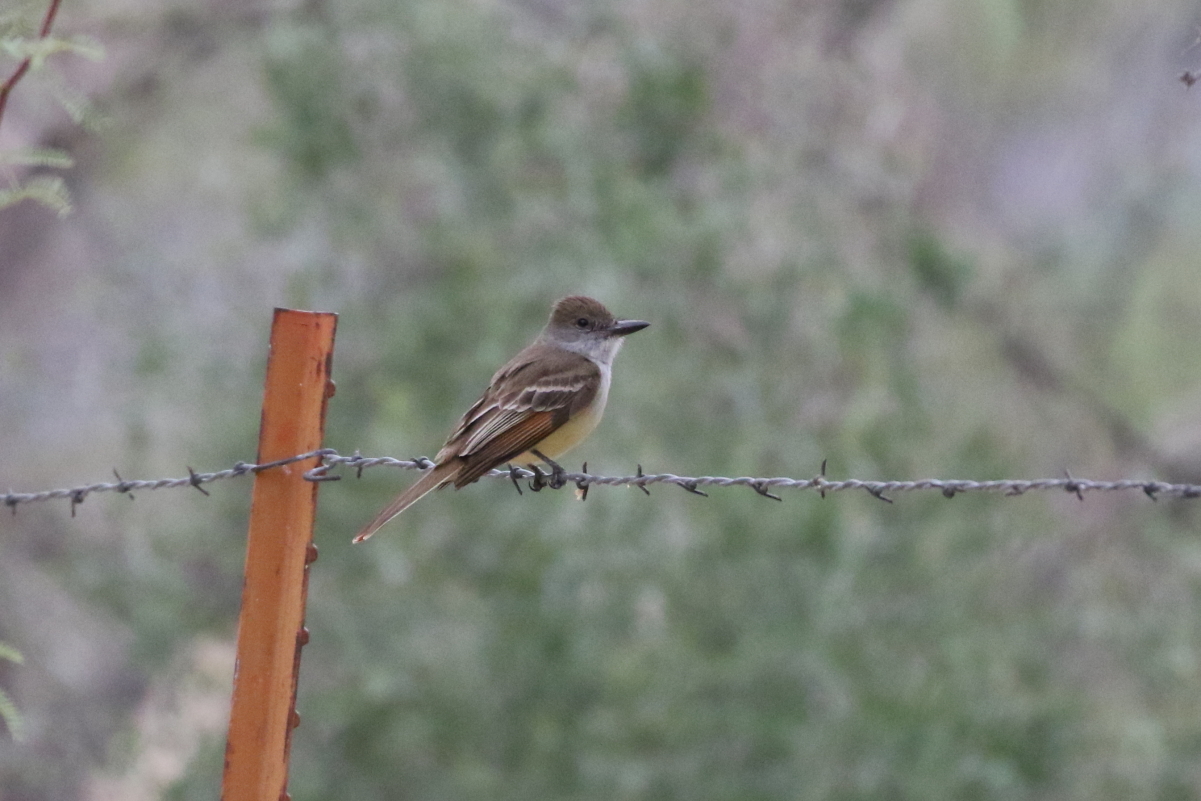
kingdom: Animalia
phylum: Chordata
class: Aves
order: Passeriformes
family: Tyrannidae
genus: Myiarchus
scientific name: Myiarchus tyrannulus
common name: Brown-crested flycatcher
